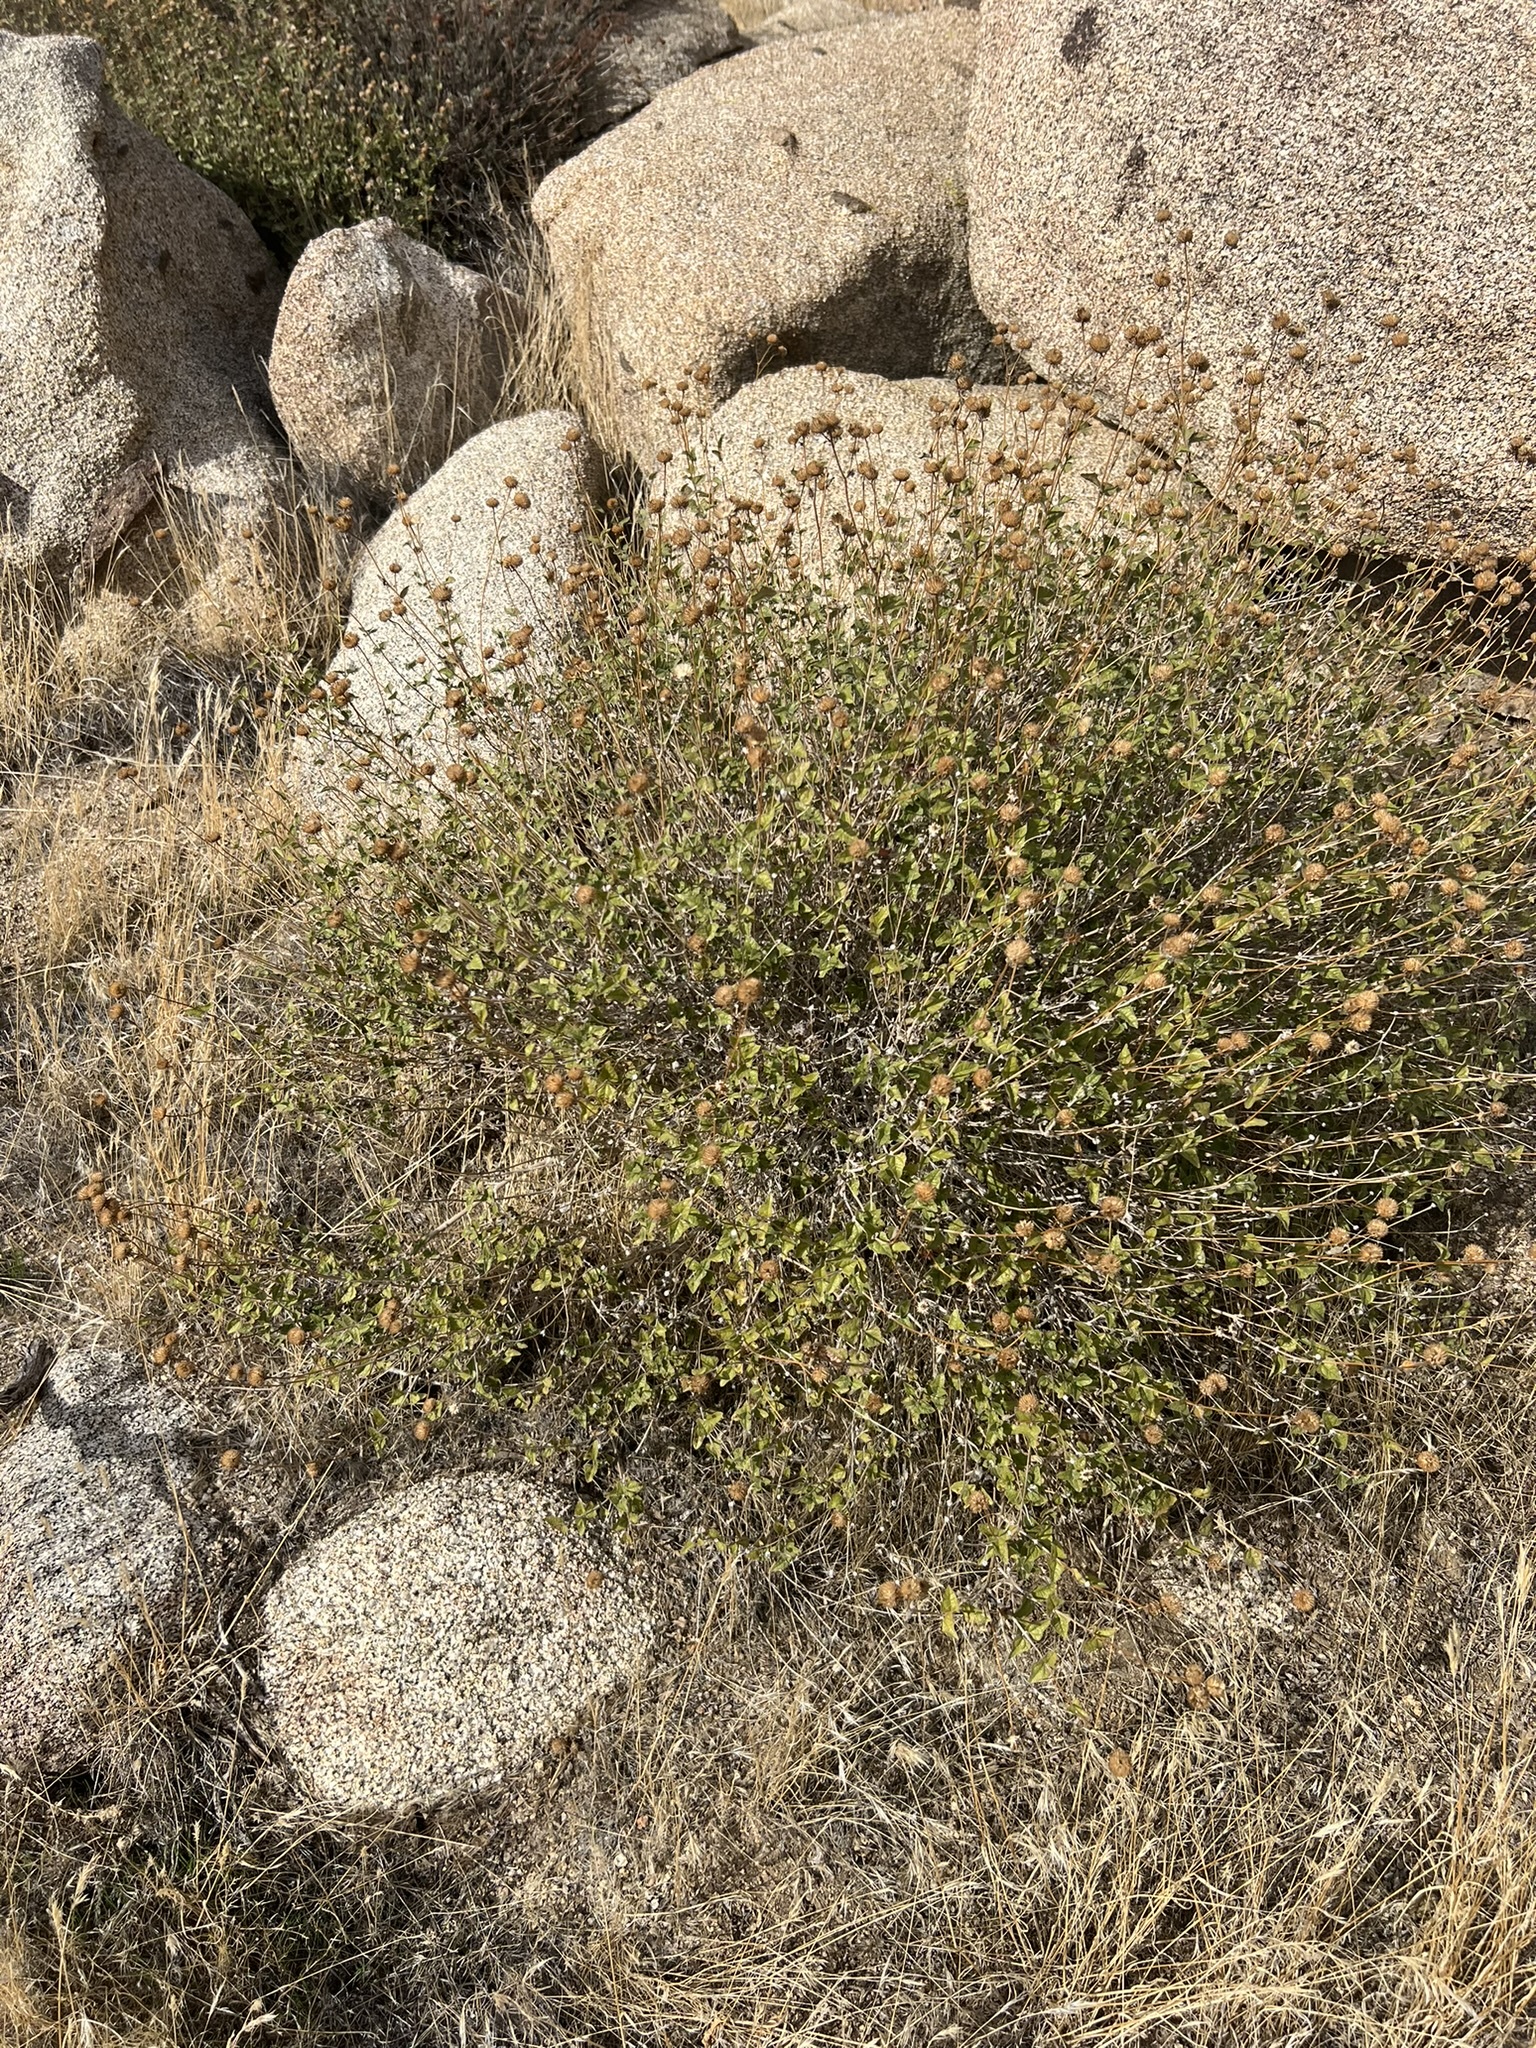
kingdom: Plantae
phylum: Tracheophyta
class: Magnoliopsida
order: Asterales
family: Asteraceae
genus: Bahiopsis
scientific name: Bahiopsis parishii
